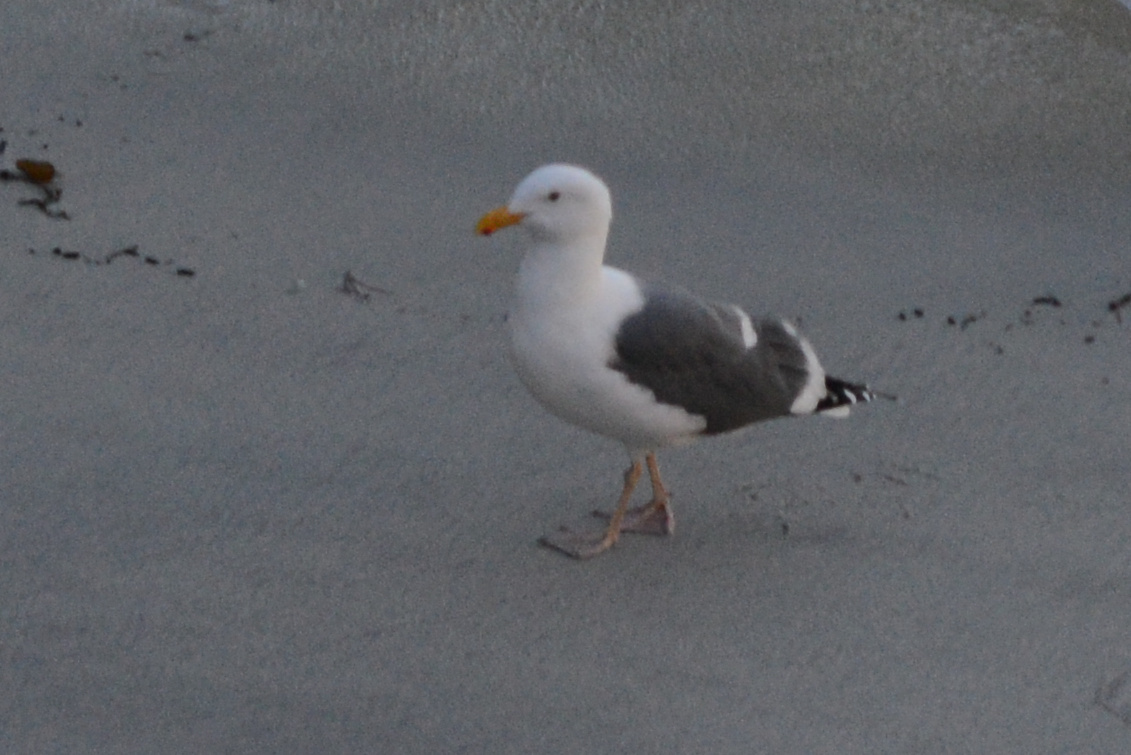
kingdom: Animalia
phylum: Chordata
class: Aves
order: Charadriiformes
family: Laridae
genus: Larus
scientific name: Larus occidentalis
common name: Western gull
